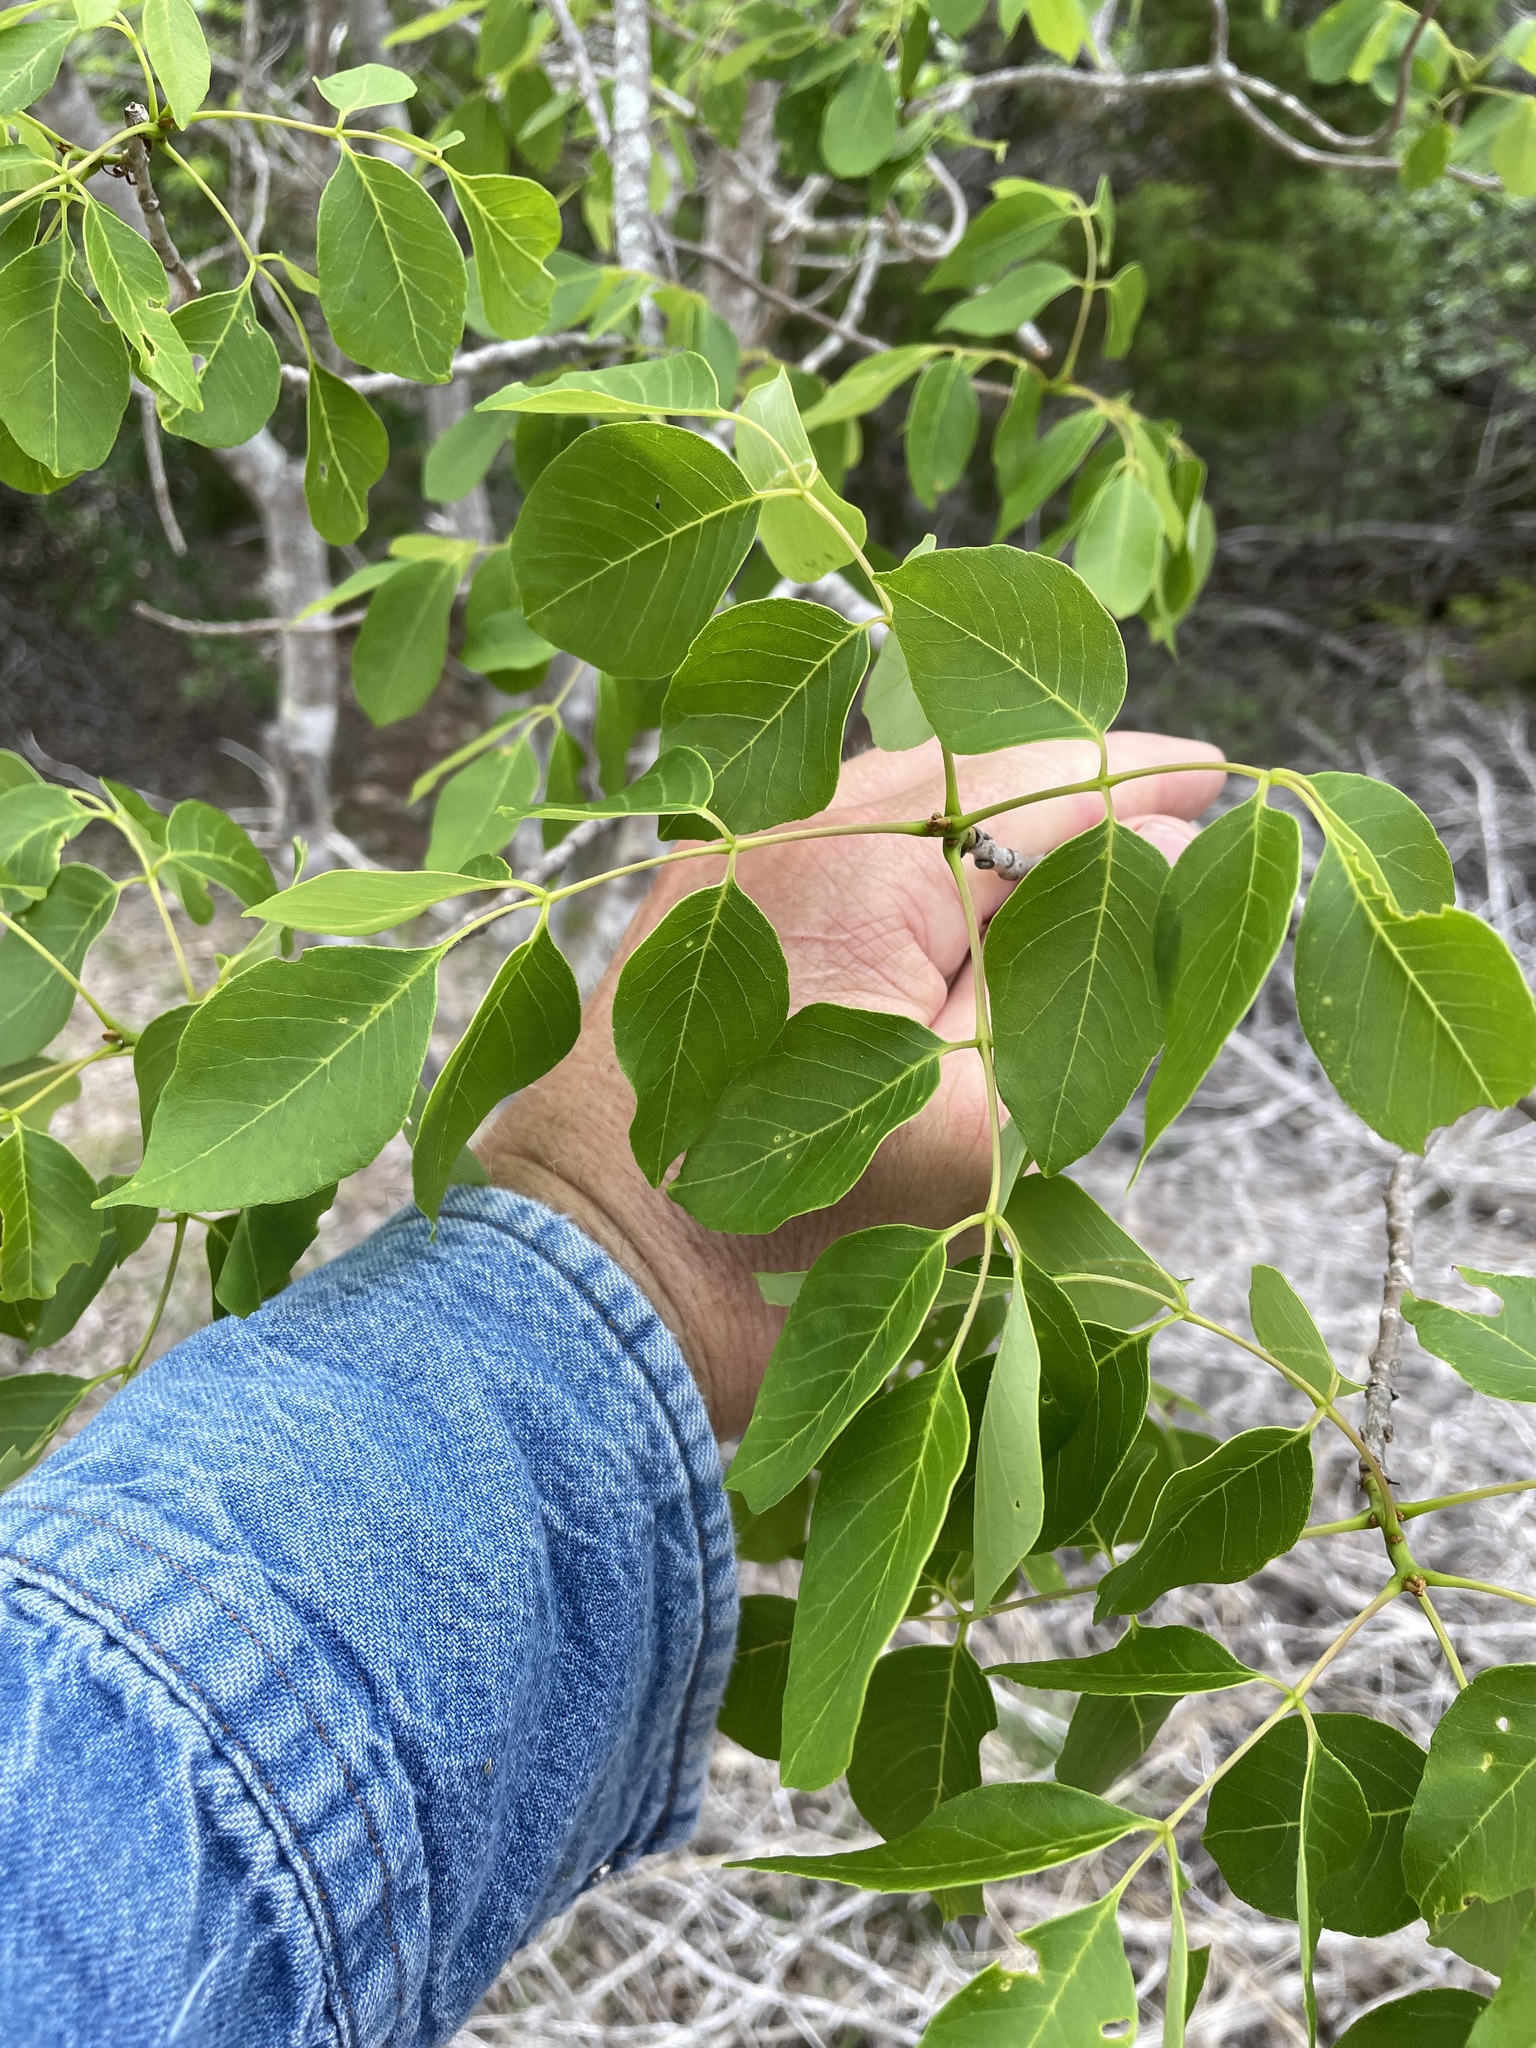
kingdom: Plantae
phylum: Tracheophyta
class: Magnoliopsida
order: Lamiales
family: Oleaceae
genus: Fraxinus
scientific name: Fraxinus albicans
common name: Texas ash
